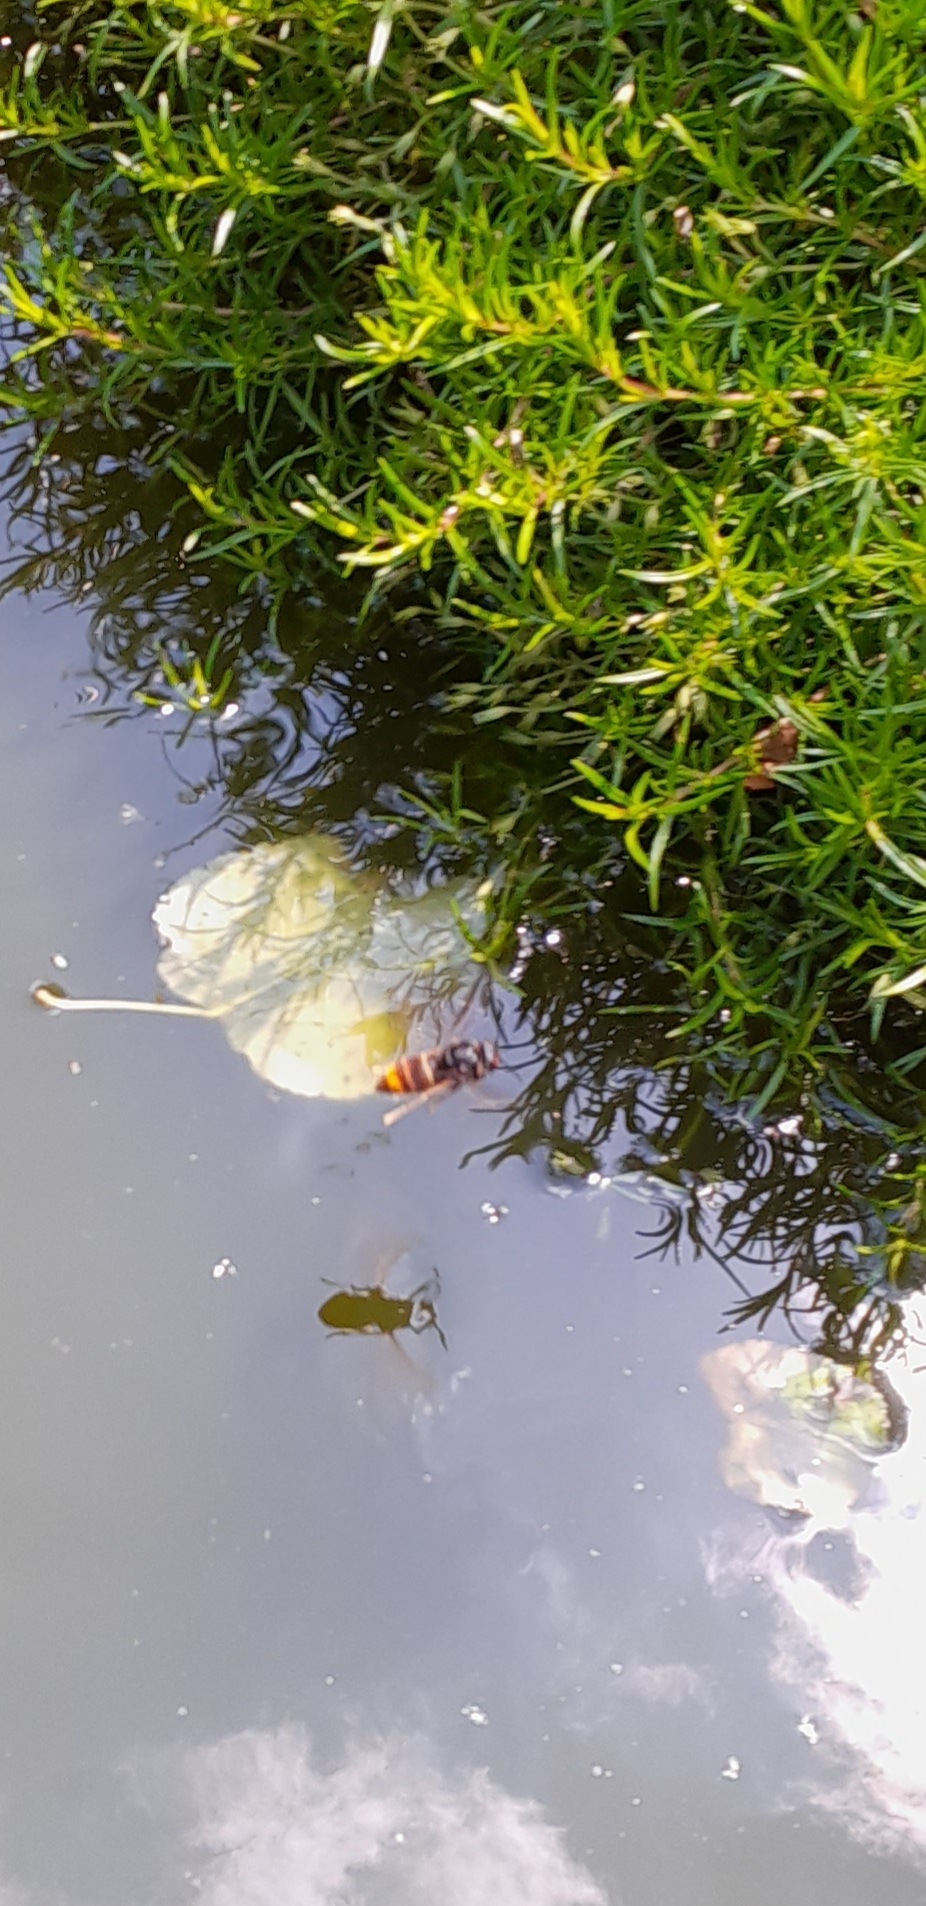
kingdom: Animalia
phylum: Arthropoda
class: Insecta
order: Hymenoptera
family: Vespidae
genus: Vespa
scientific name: Vespa velutina
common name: Asian hornet
